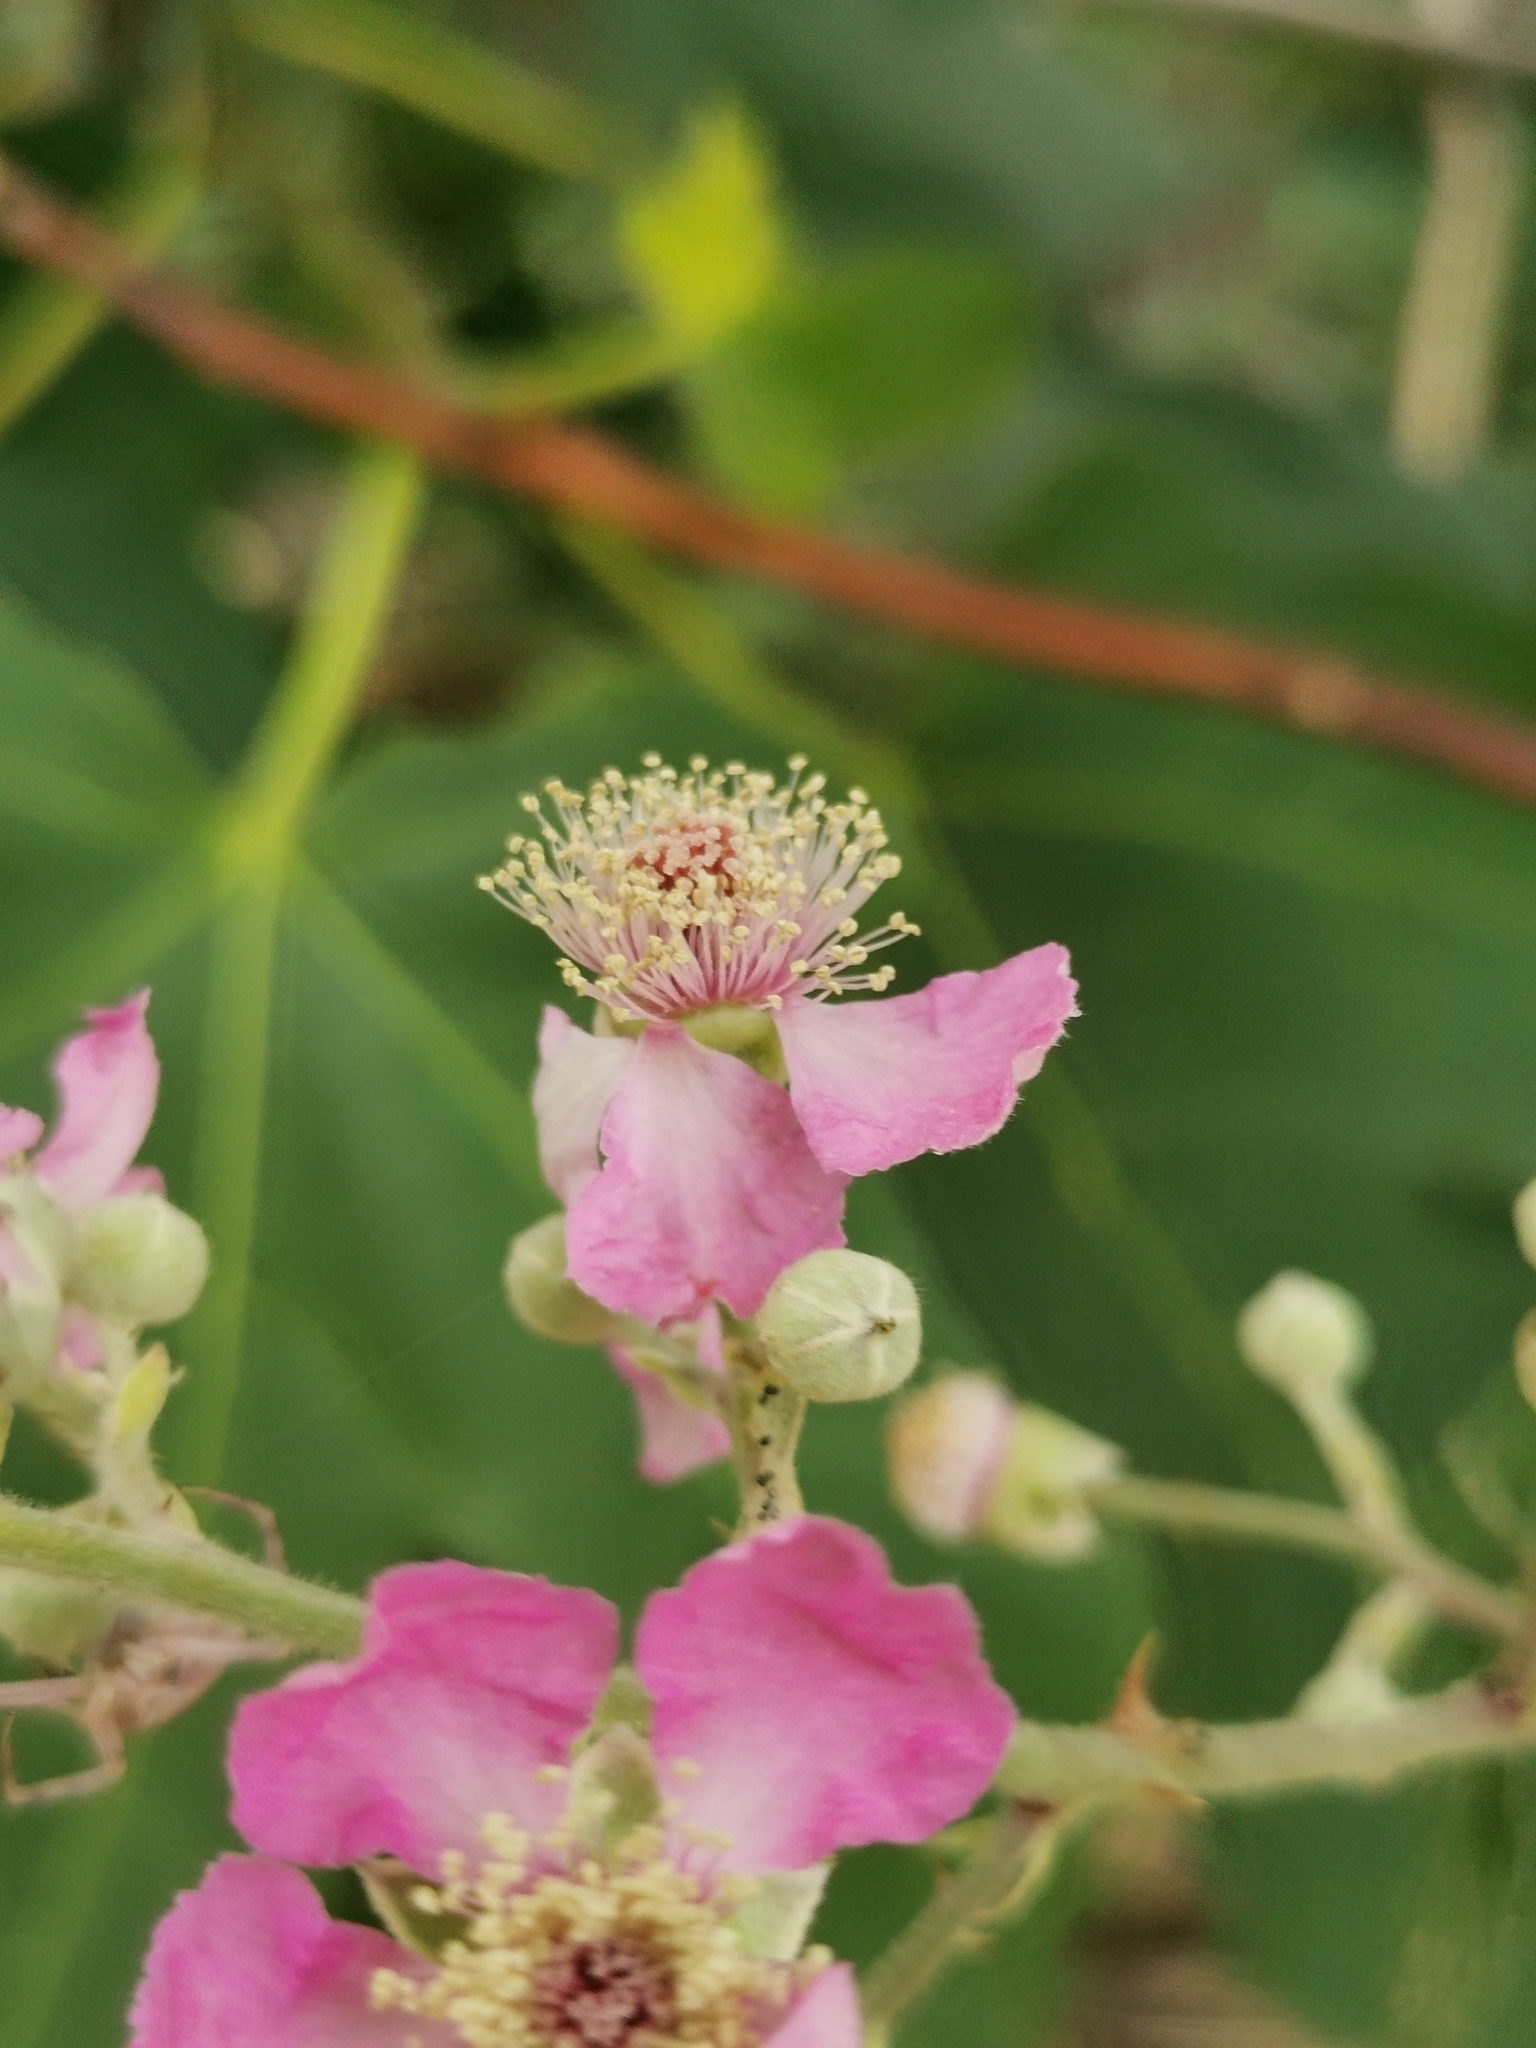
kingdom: Plantae
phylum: Tracheophyta
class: Magnoliopsida
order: Rosales
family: Rosaceae
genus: Rubus
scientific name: Rubus ulmifolius
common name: Elmleaf blackberry
